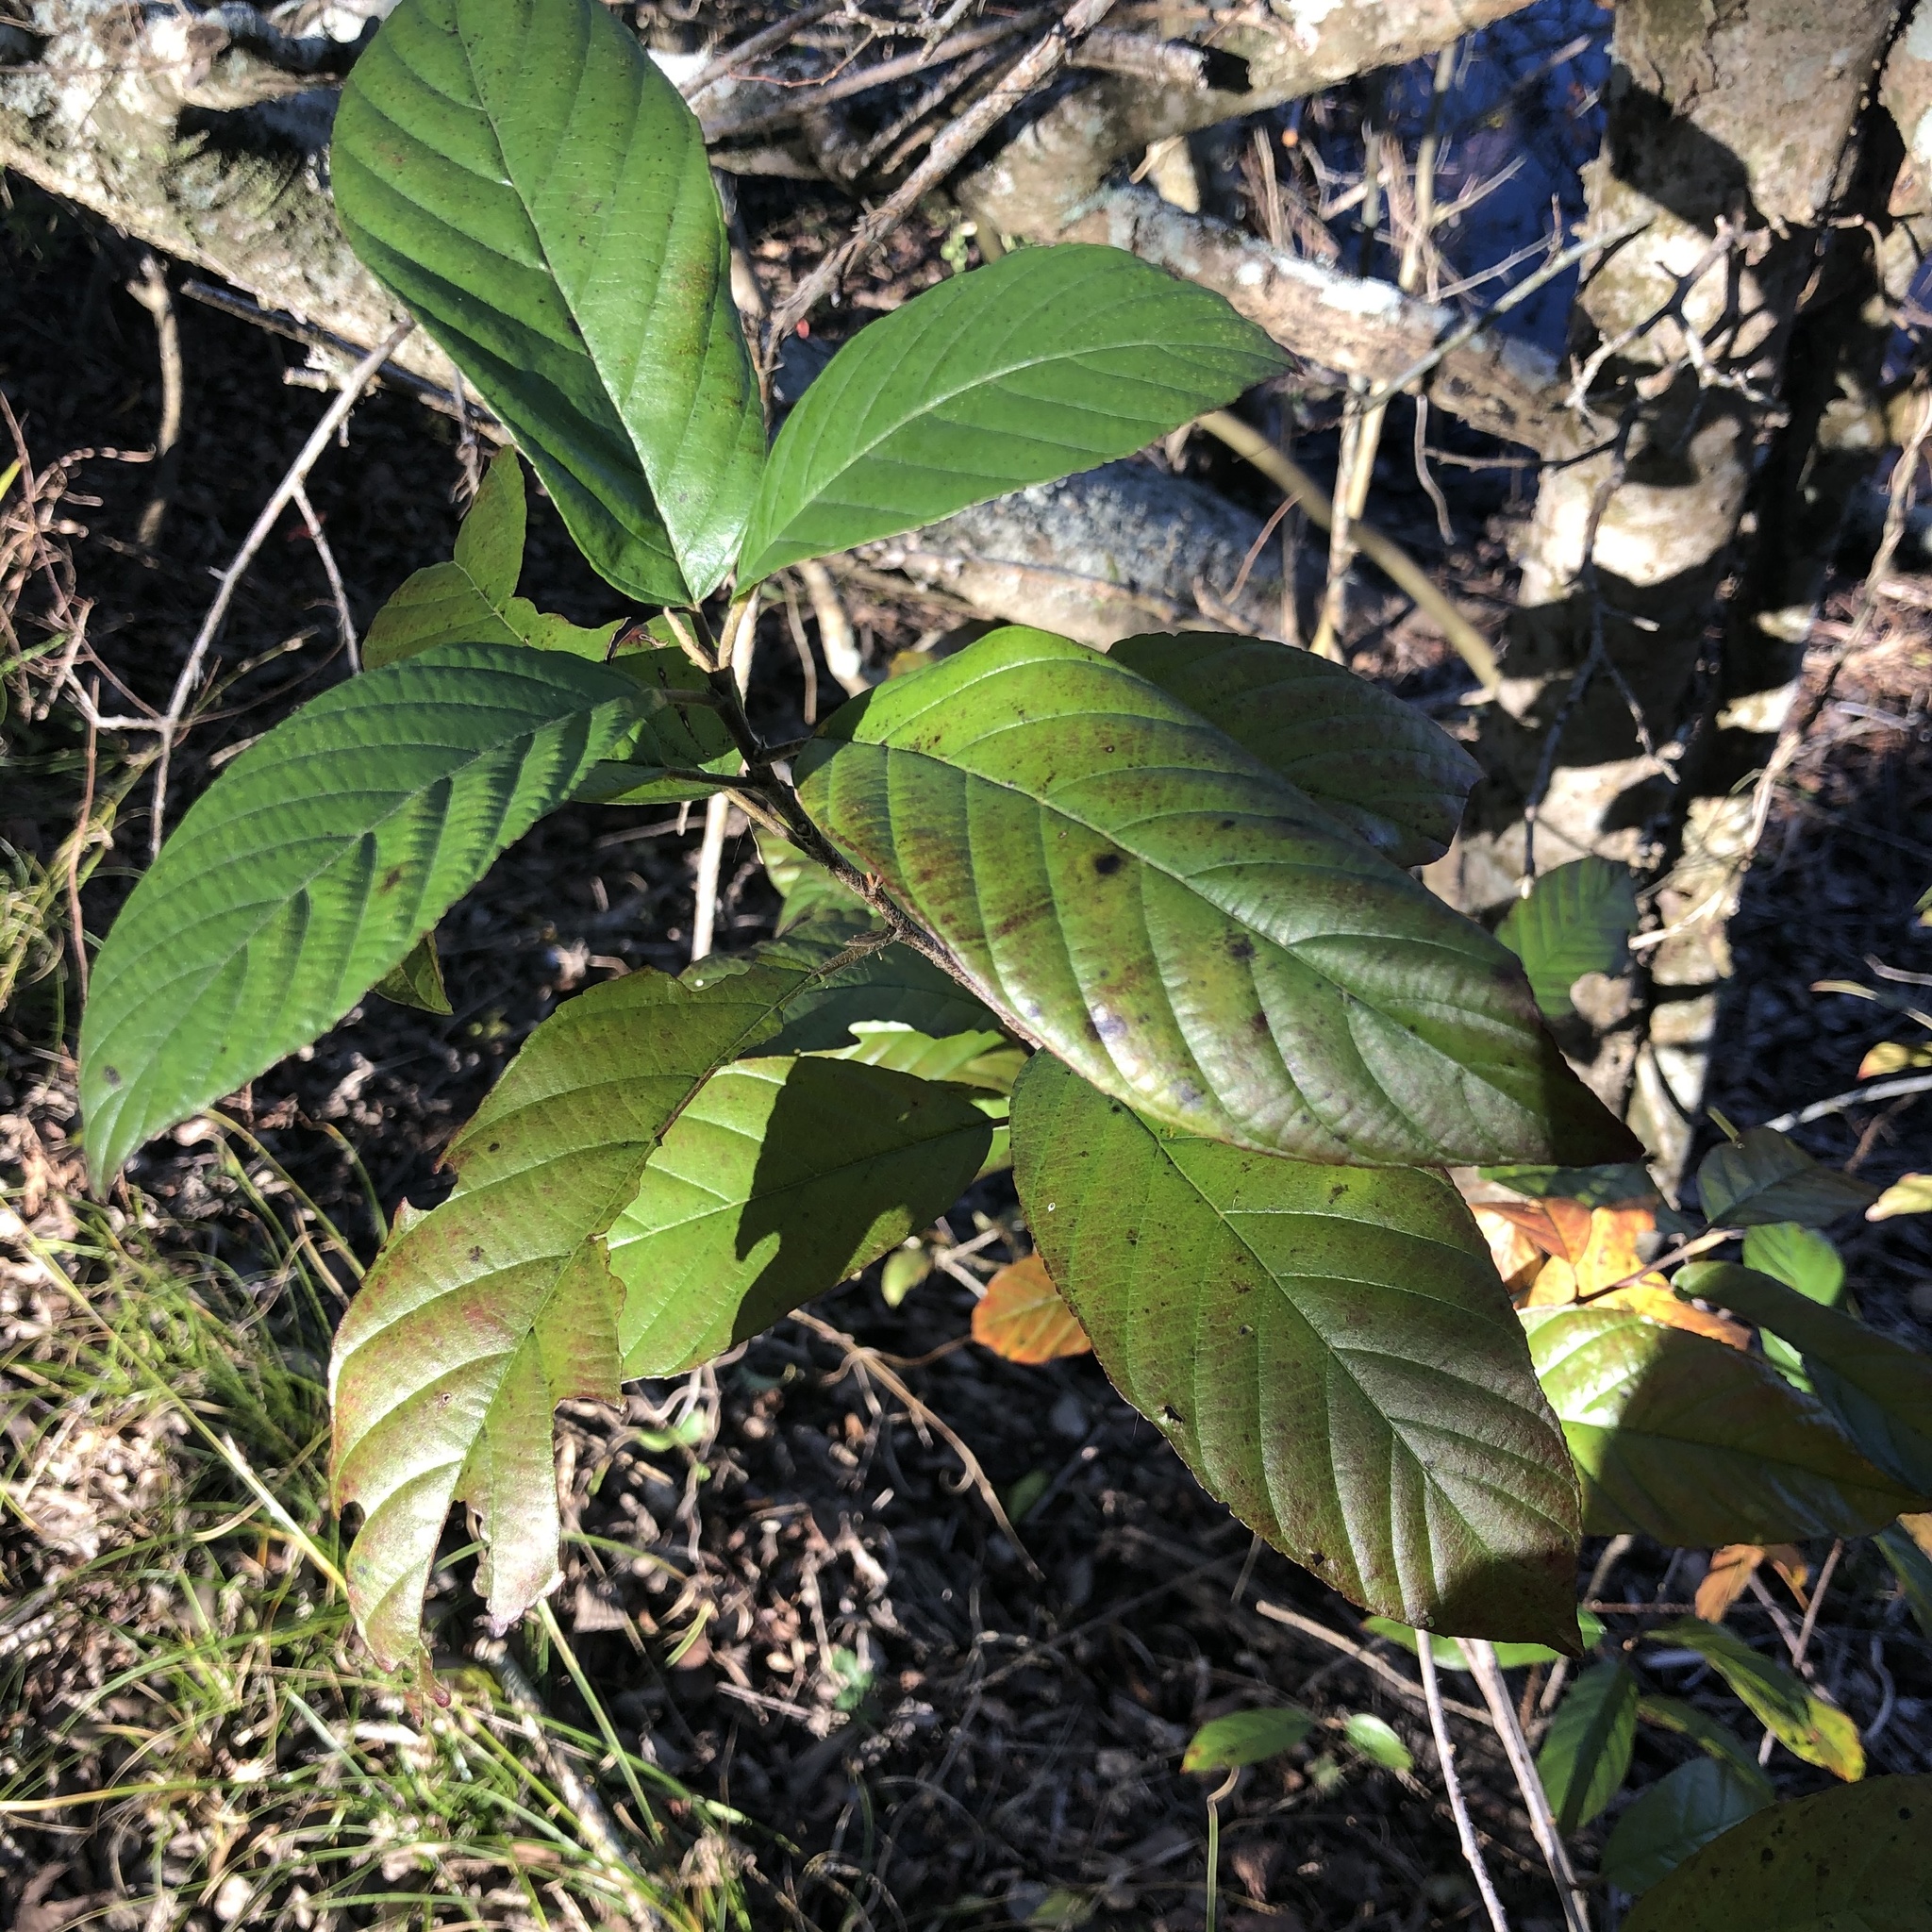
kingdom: Plantae
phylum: Tracheophyta
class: Magnoliopsida
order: Rosales
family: Rhamnaceae
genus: Frangula
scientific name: Frangula caroliniana
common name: Carolina buckthorn
